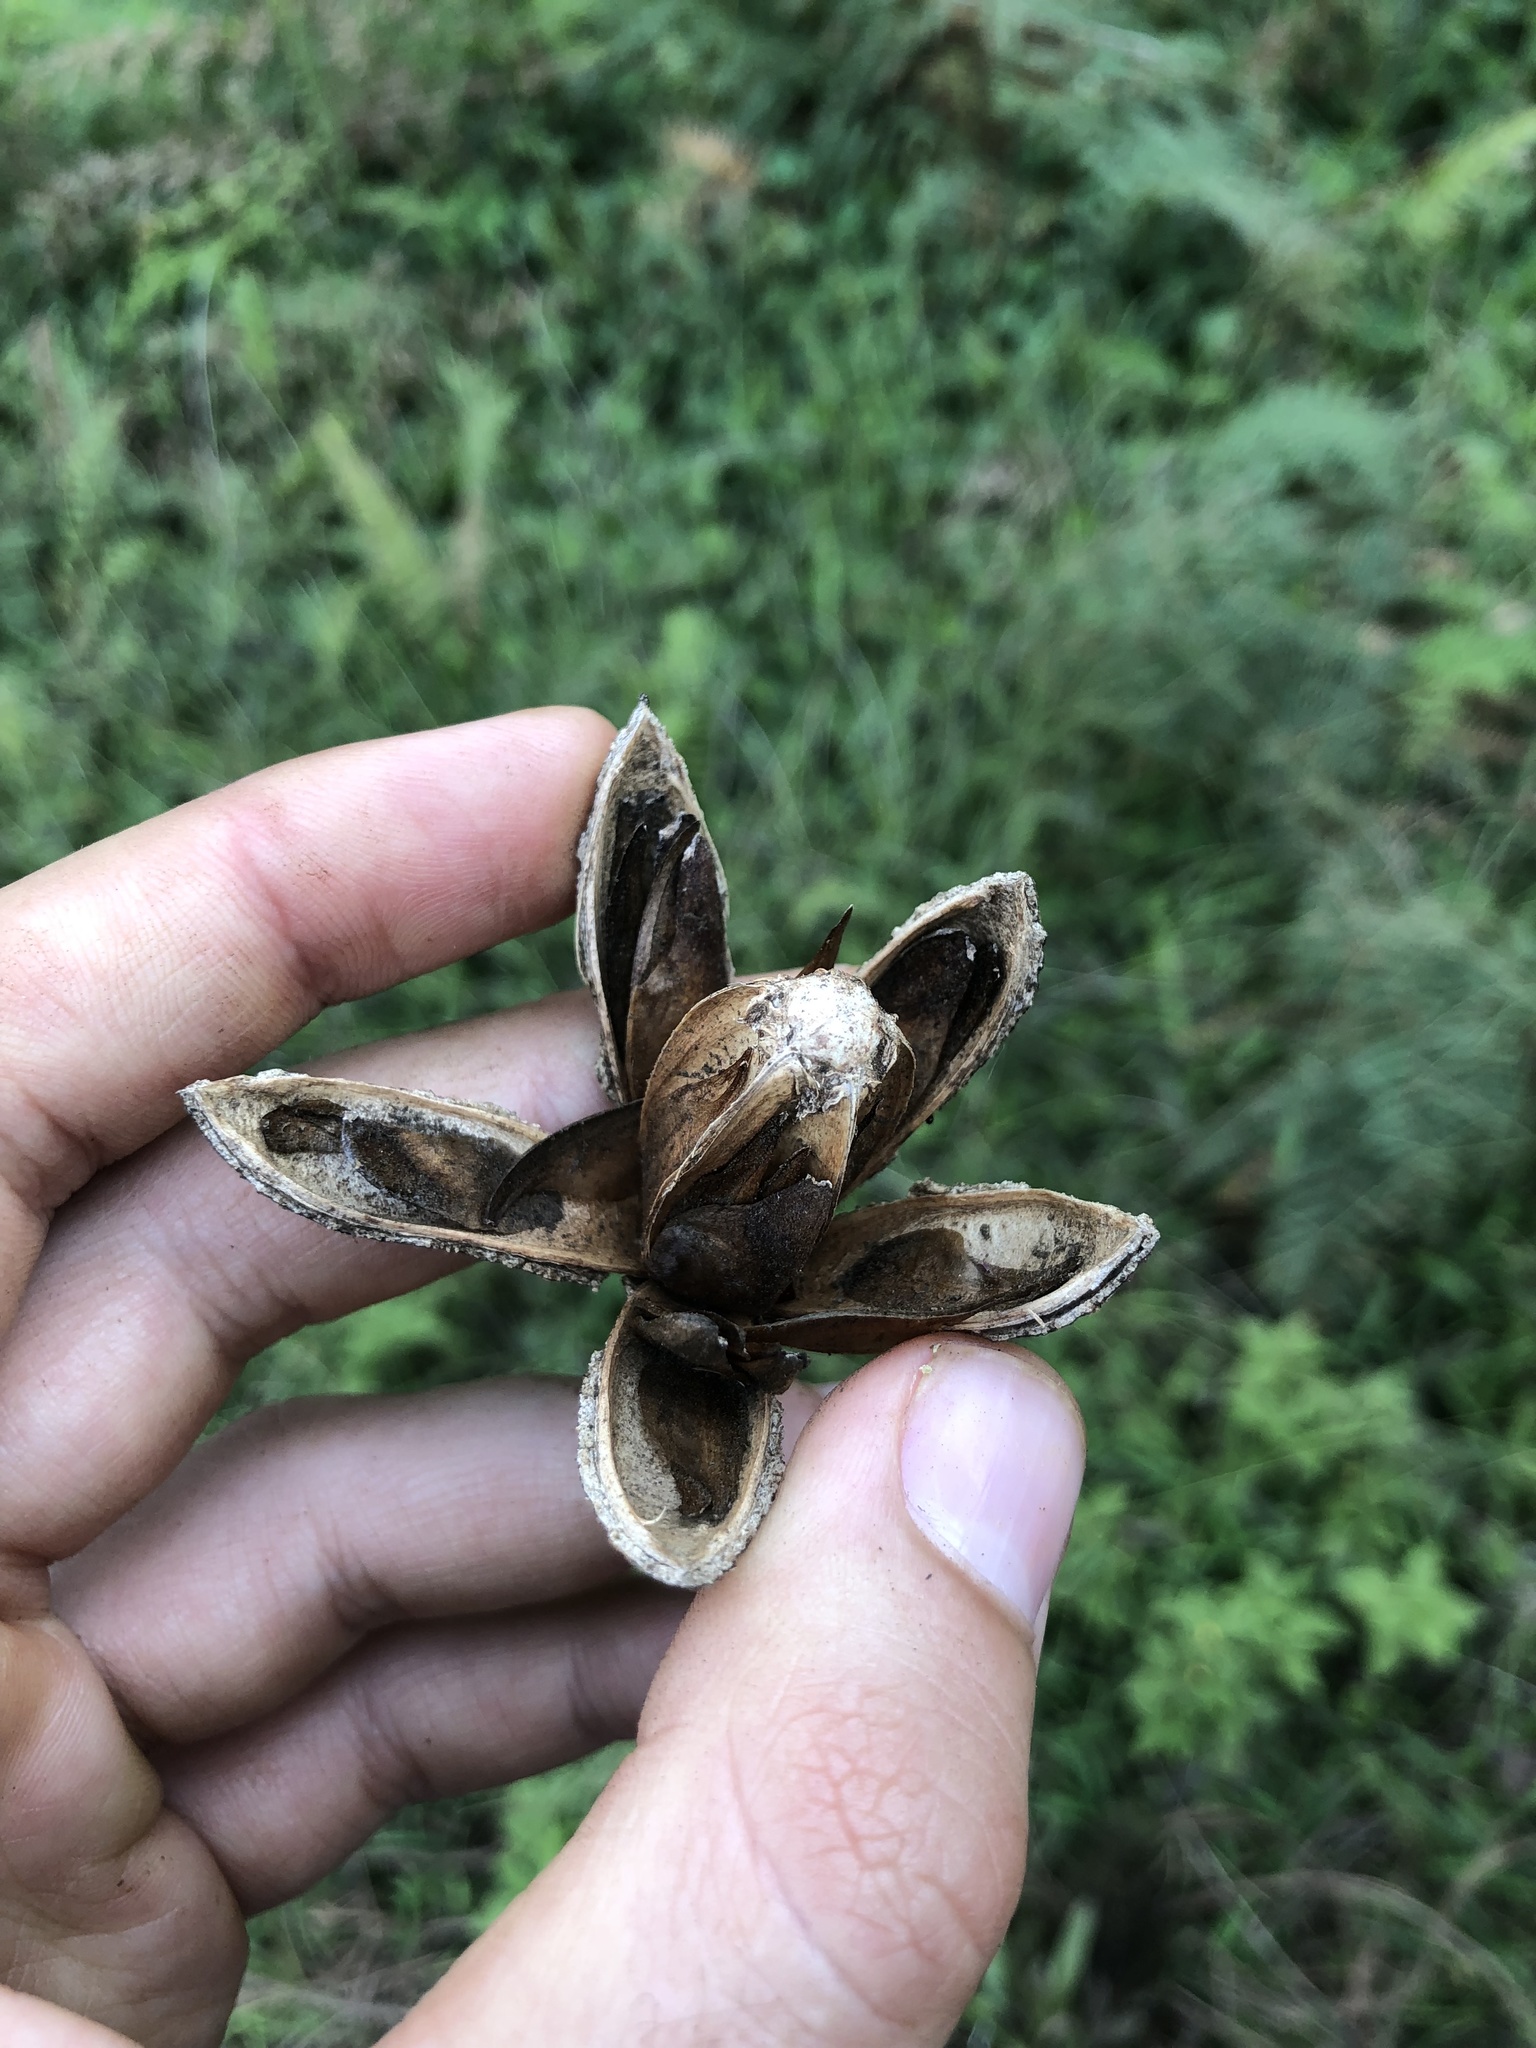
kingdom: Plantae
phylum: Tracheophyta
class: Magnoliopsida
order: Sapindales
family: Meliaceae
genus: Cedrela
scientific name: Cedrela odorata
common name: Red cedar
